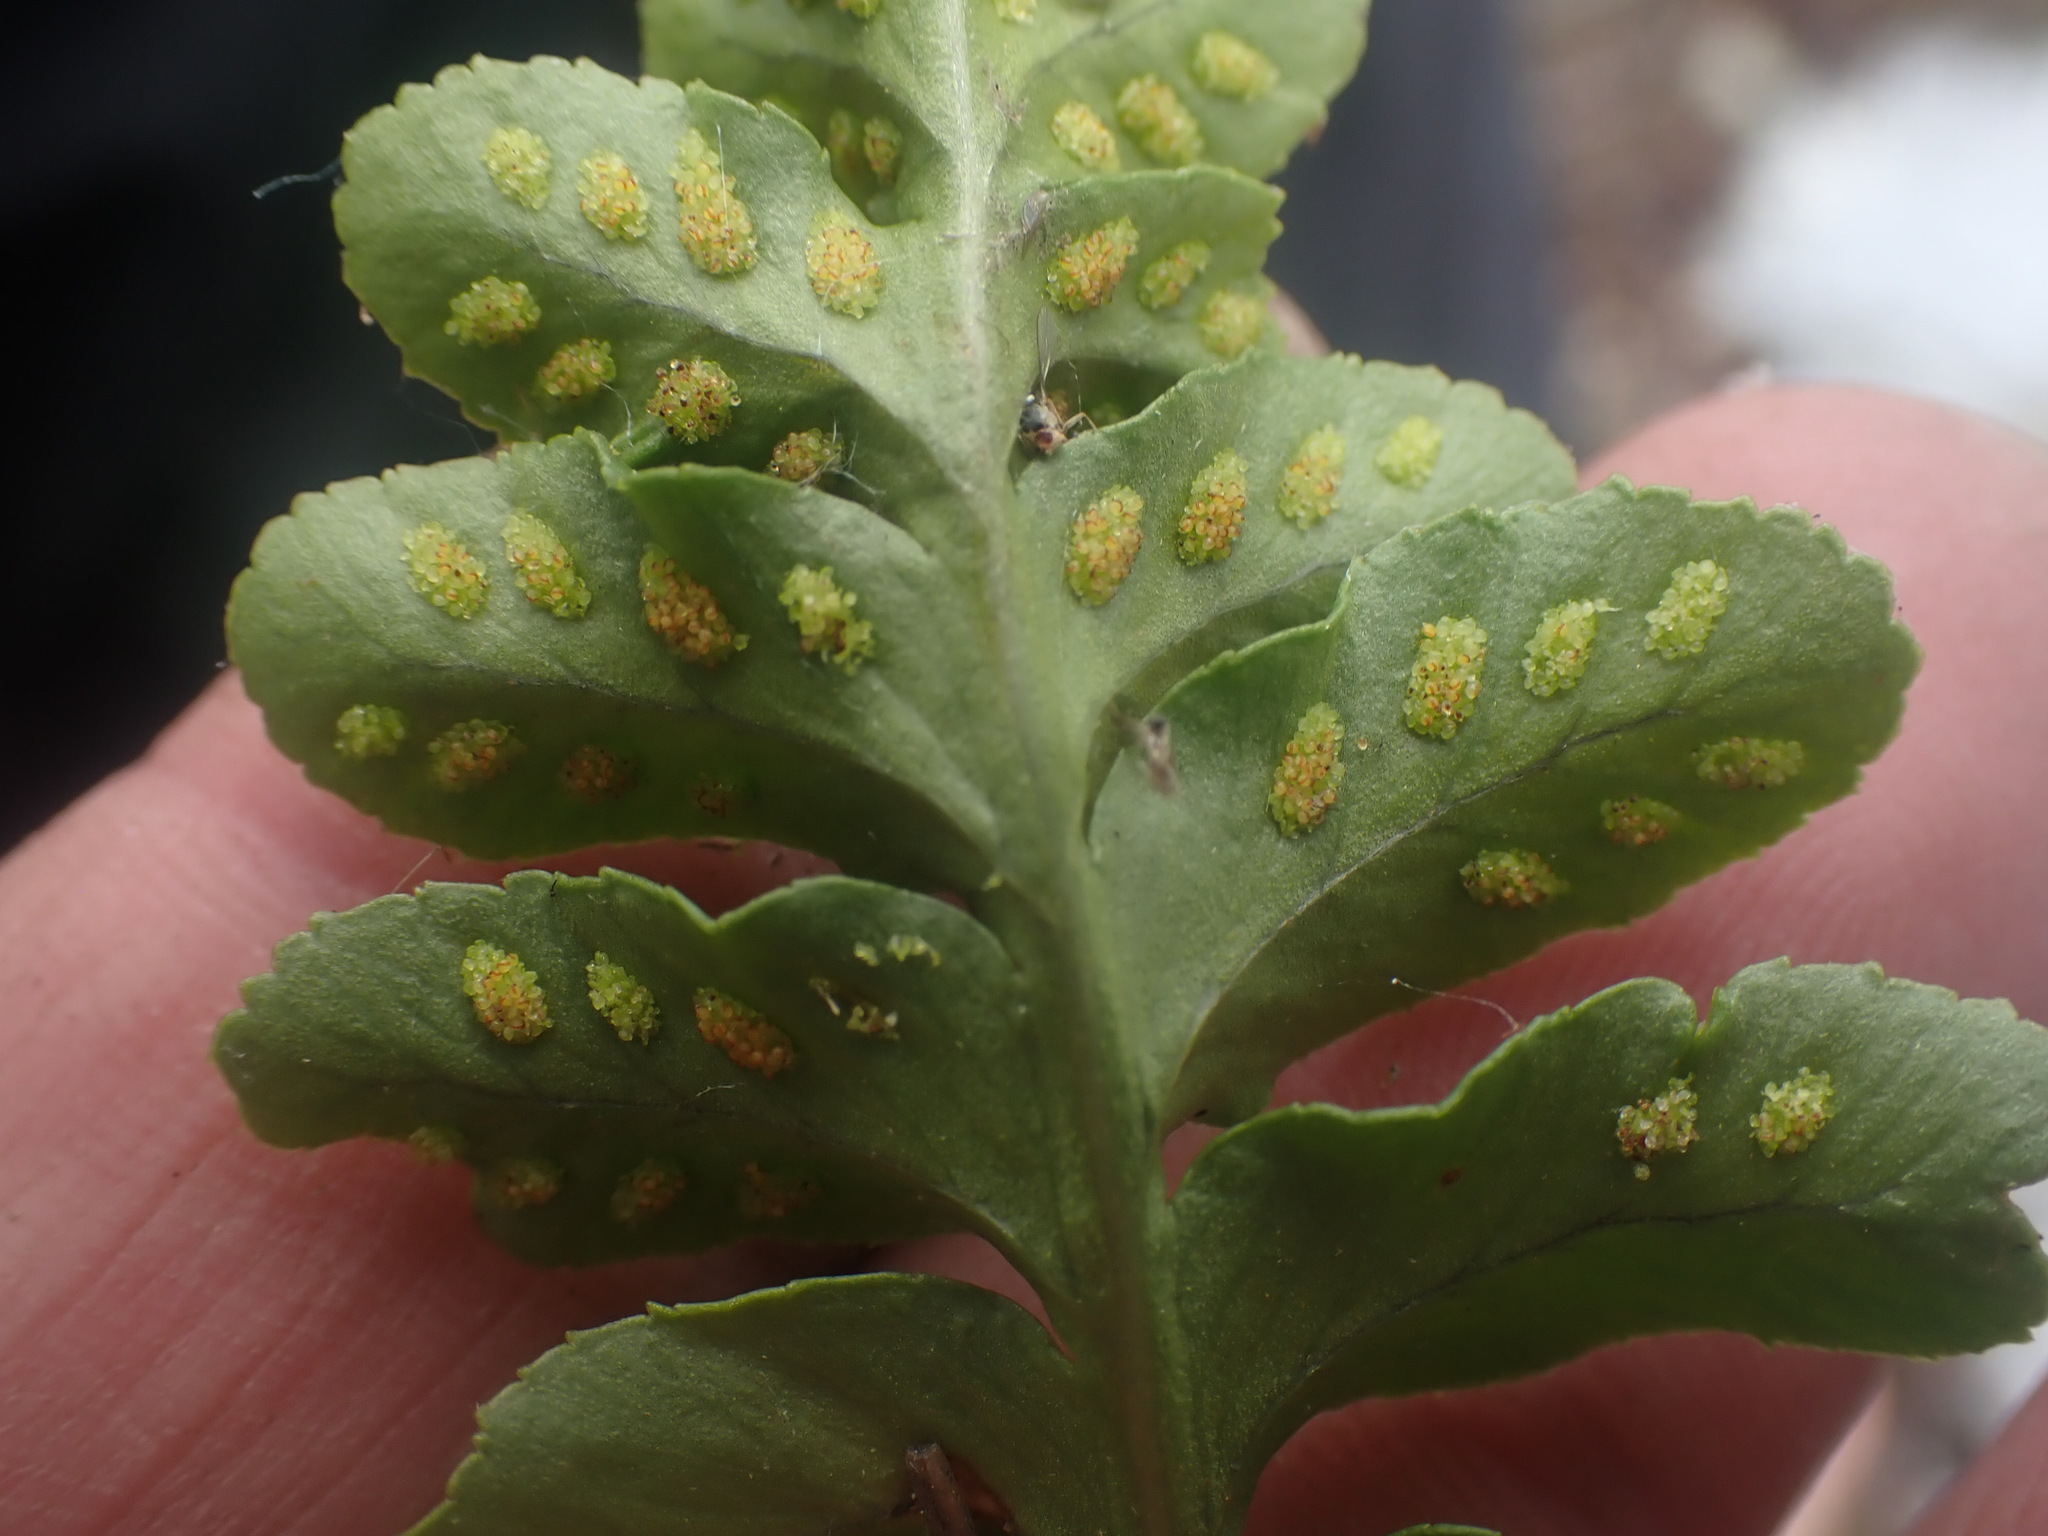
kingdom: Plantae
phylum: Tracheophyta
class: Polypodiopsida
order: Polypodiales
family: Polypodiaceae
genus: Polypodium
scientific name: Polypodium hesperium
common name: Western polypody
